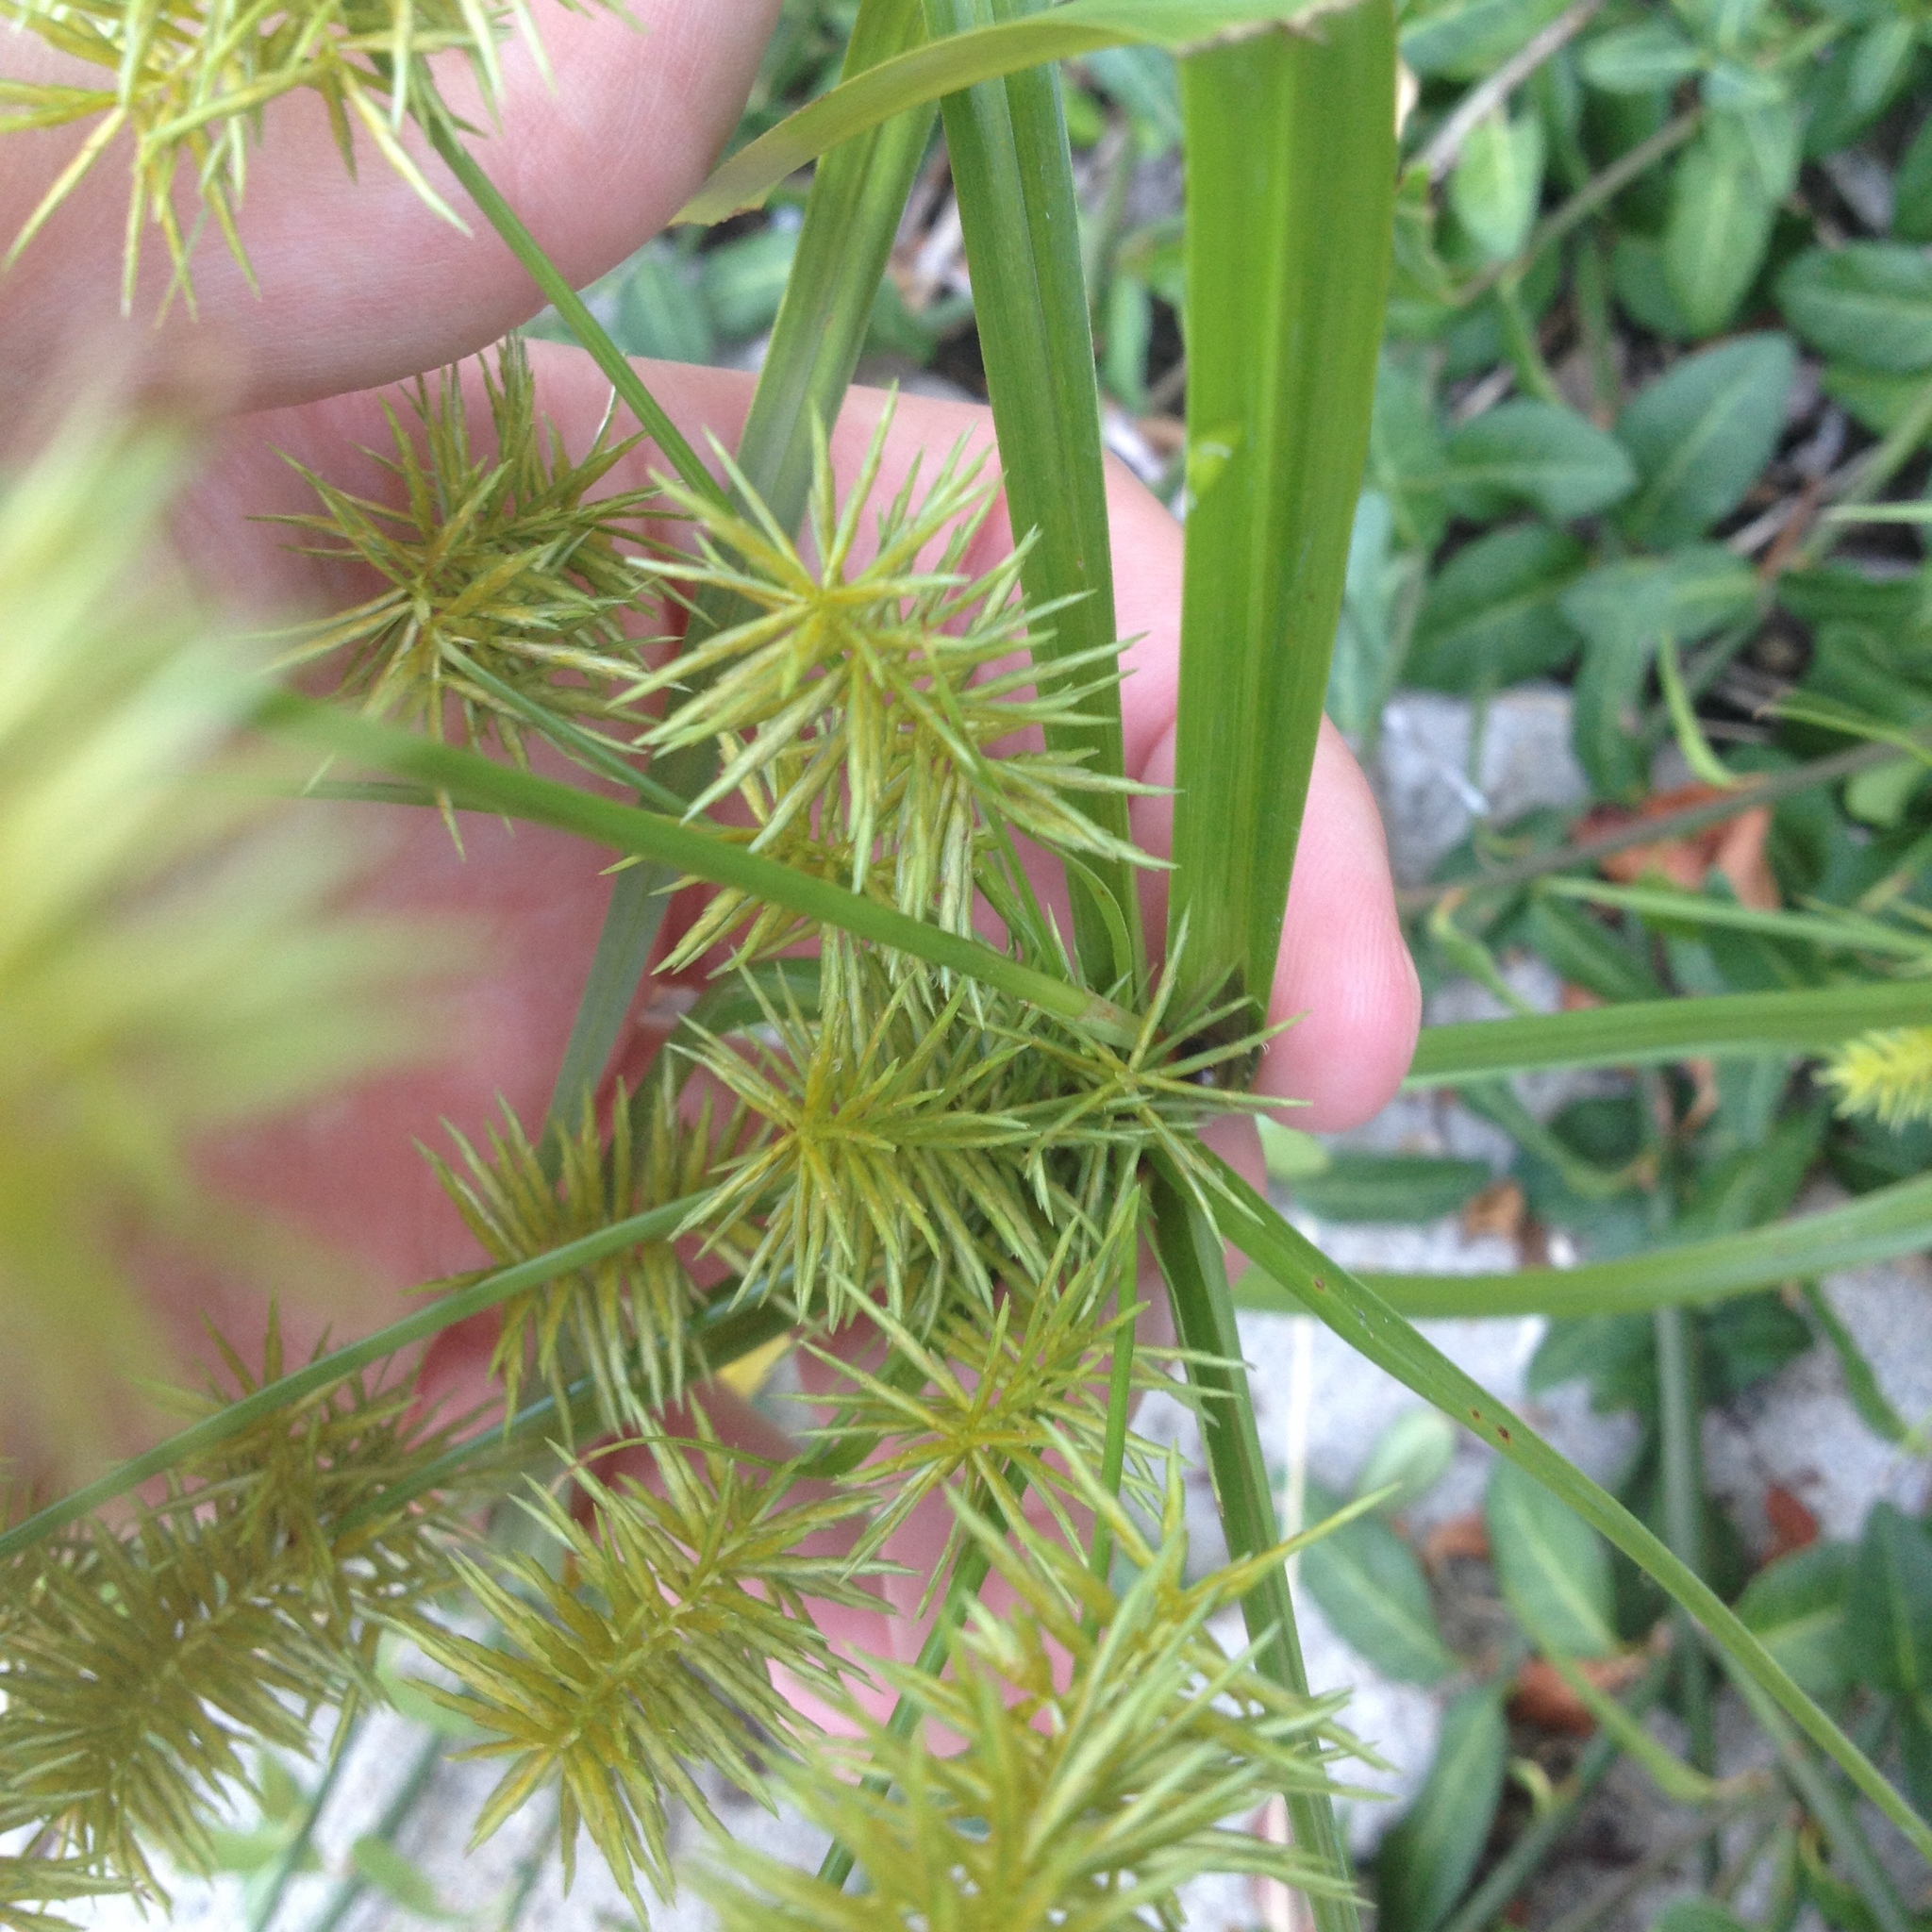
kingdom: Plantae
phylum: Tracheophyta
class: Liliopsida
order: Poales
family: Cyperaceae
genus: Cyperus
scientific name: Cyperus strigosus
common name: False nutsedge
